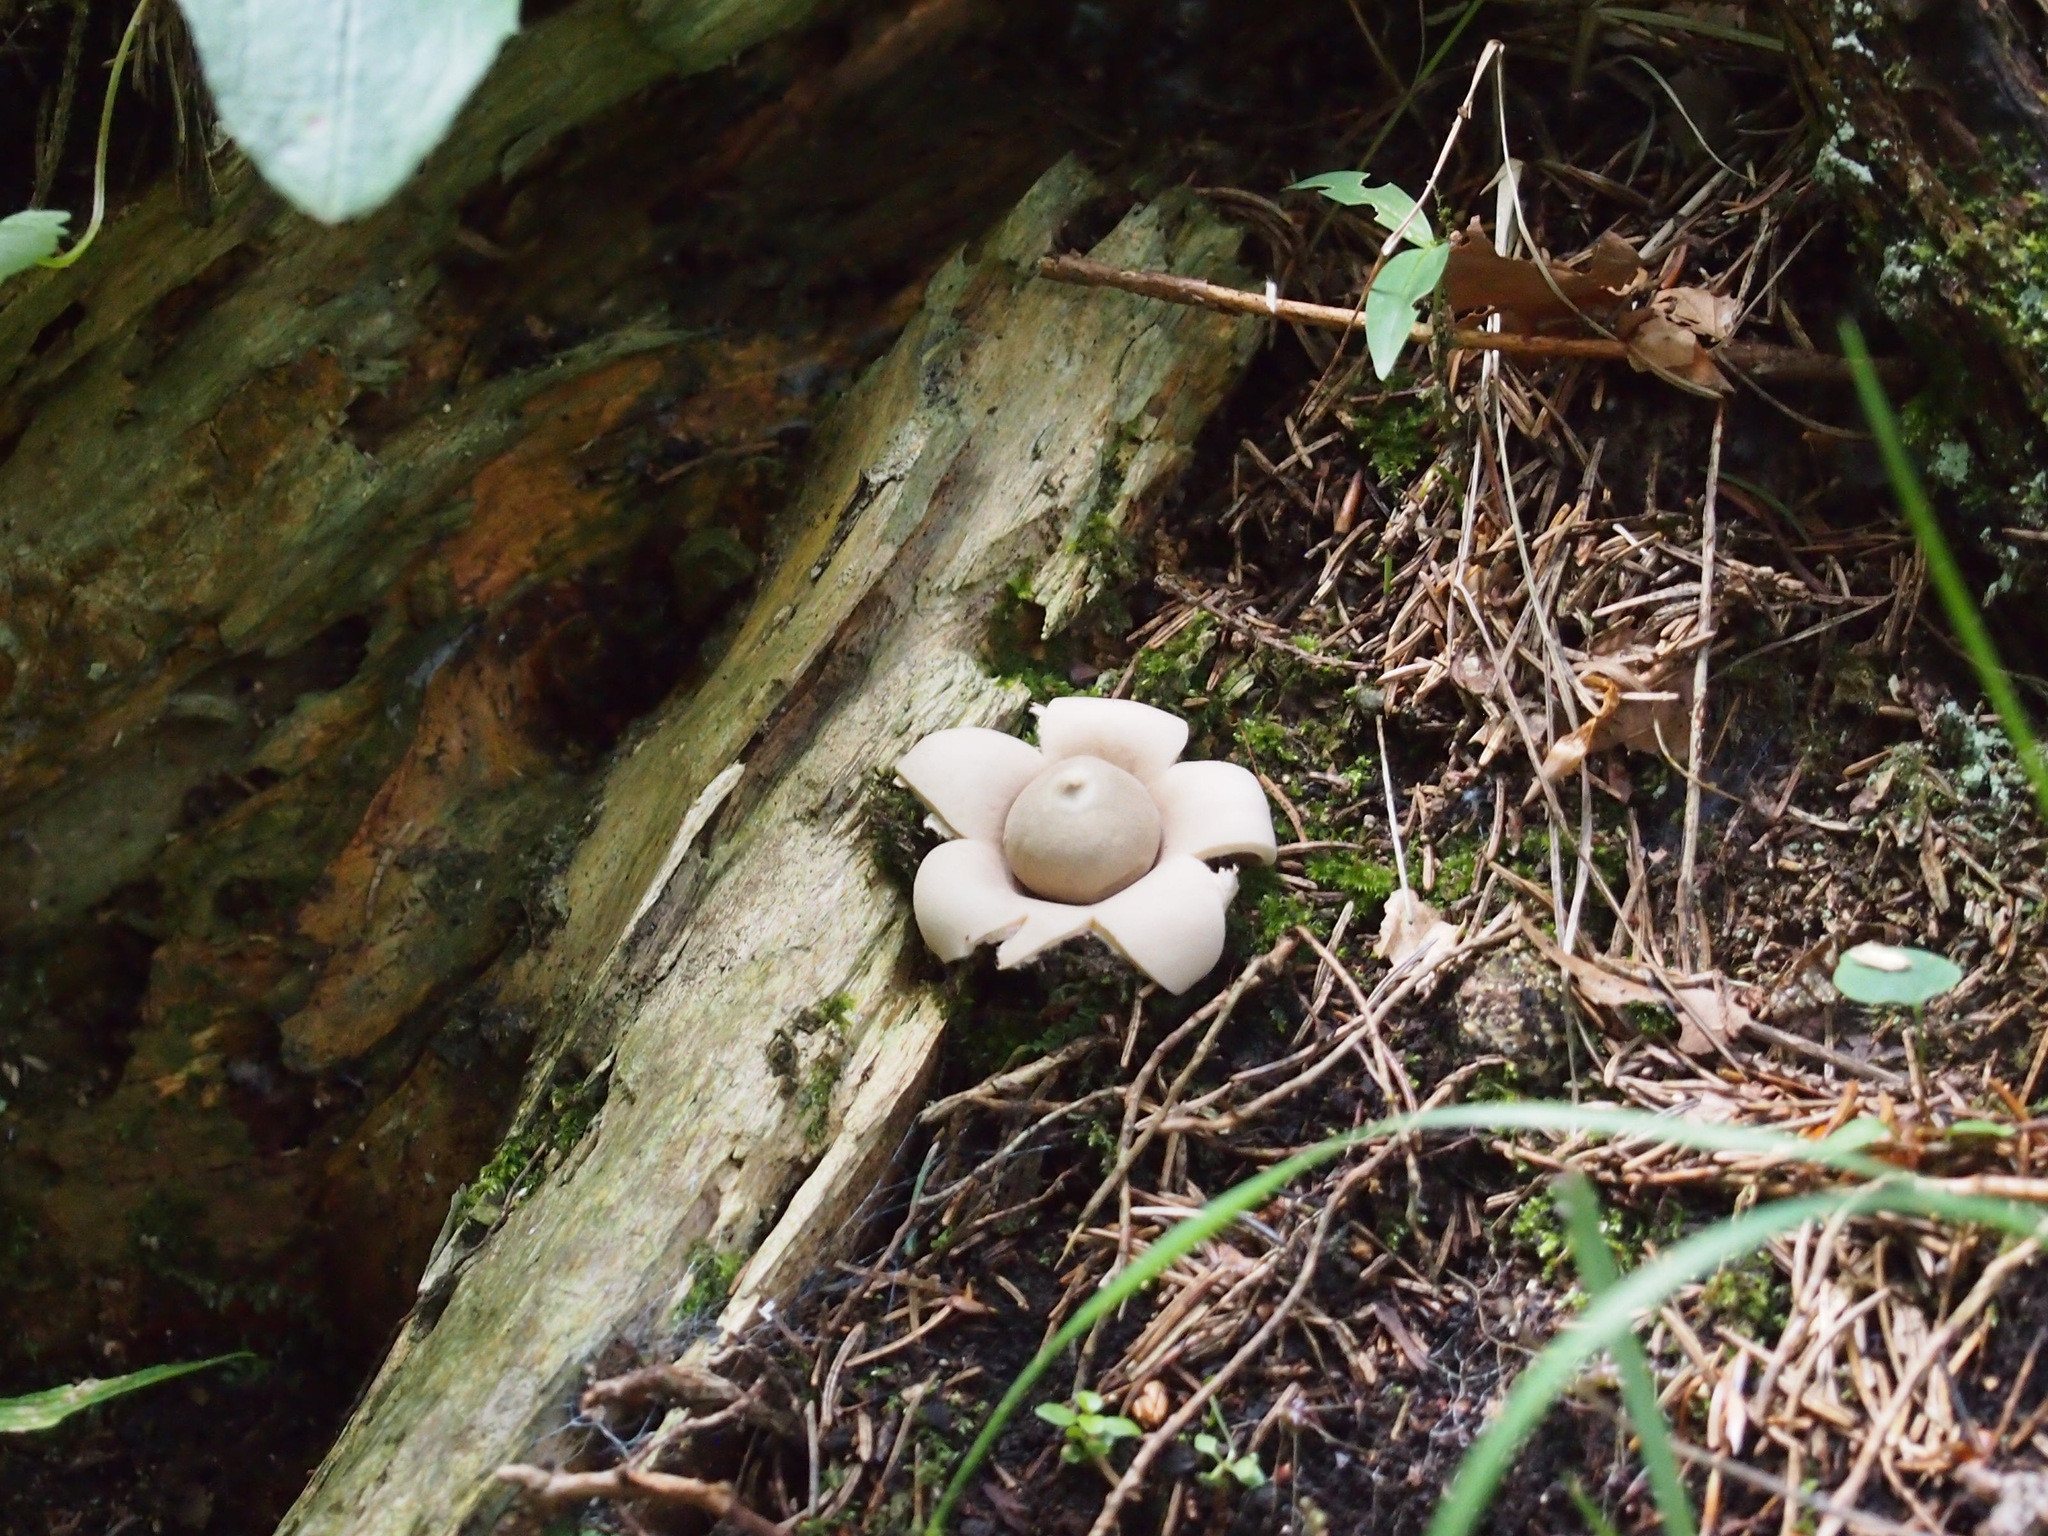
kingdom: Fungi
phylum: Basidiomycota
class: Agaricomycetes
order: Geastrales
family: Geastraceae
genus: Geastrum
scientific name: Geastrum fimbriatum
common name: Sessile earthstar
